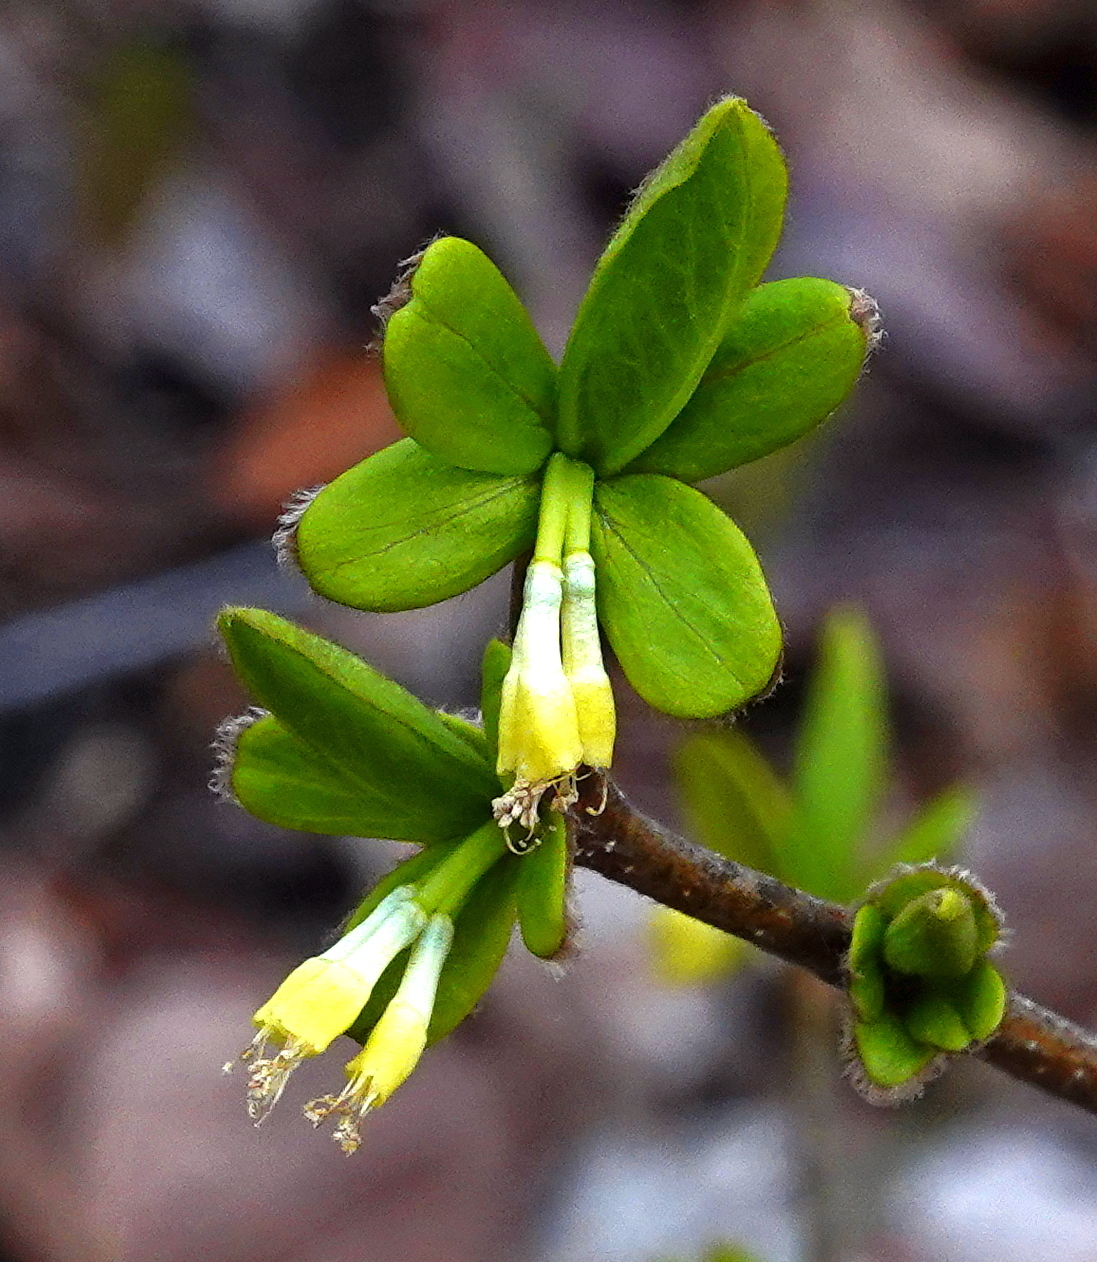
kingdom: Plantae
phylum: Tracheophyta
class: Magnoliopsida
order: Malvales
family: Thymelaeaceae
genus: Dirca
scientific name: Dirca palustris
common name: Leatherwood
